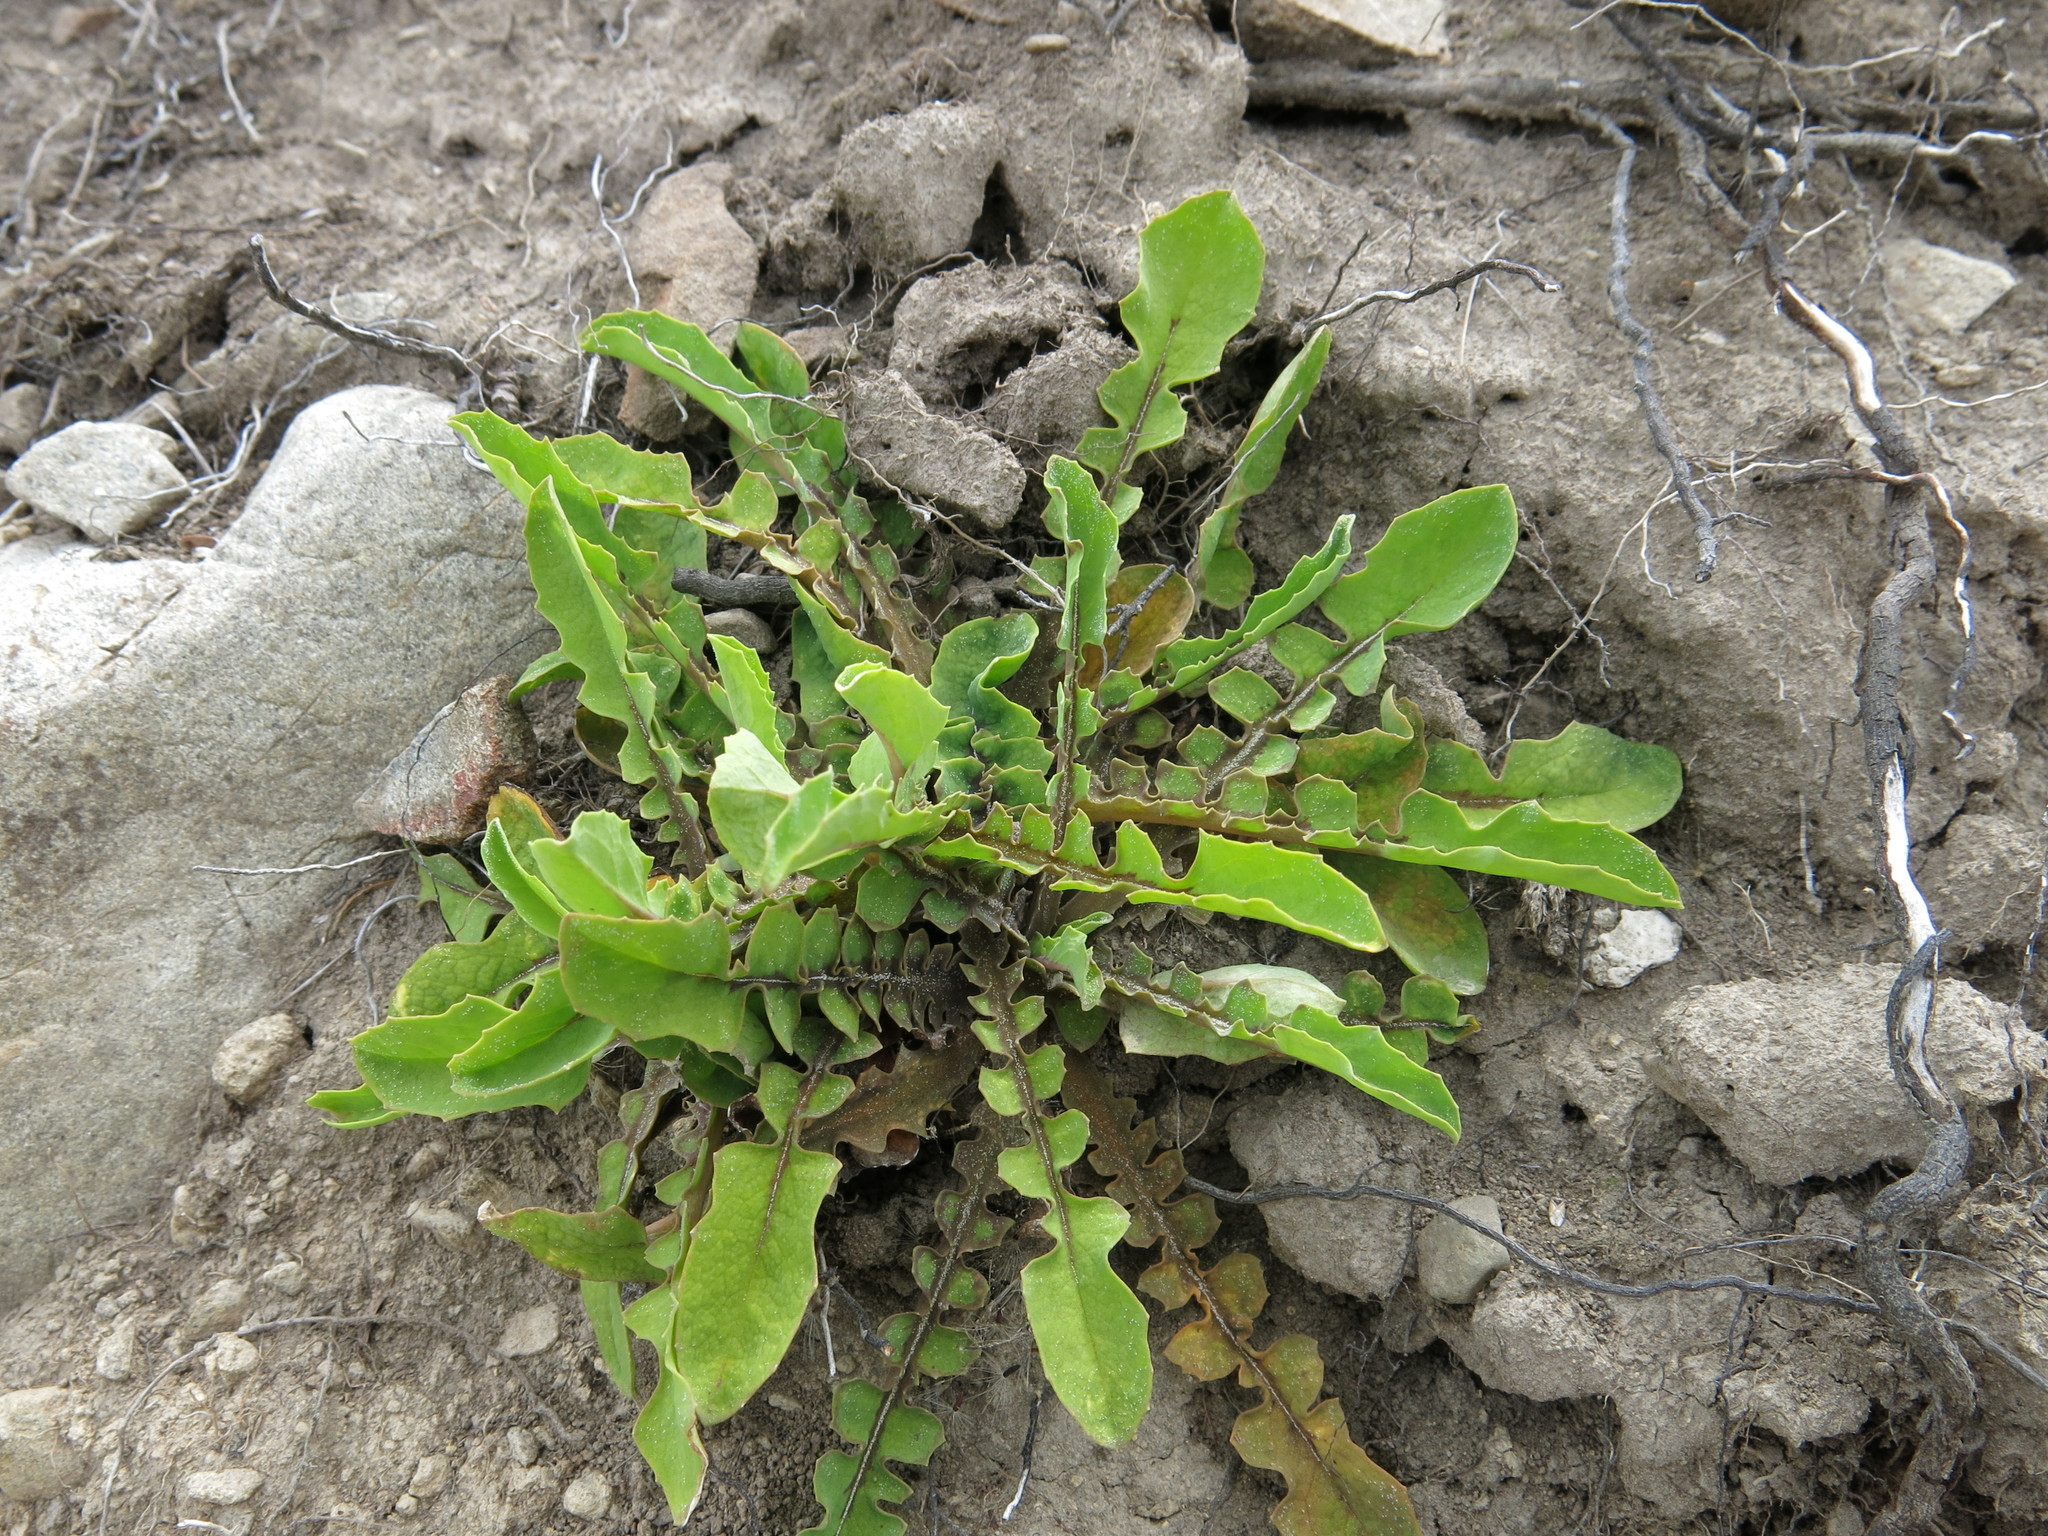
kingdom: Plantae
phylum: Tracheophyta
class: Magnoliopsida
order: Asterales
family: Asteraceae
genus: Sonchus
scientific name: Sonchus novae-zelandiae
